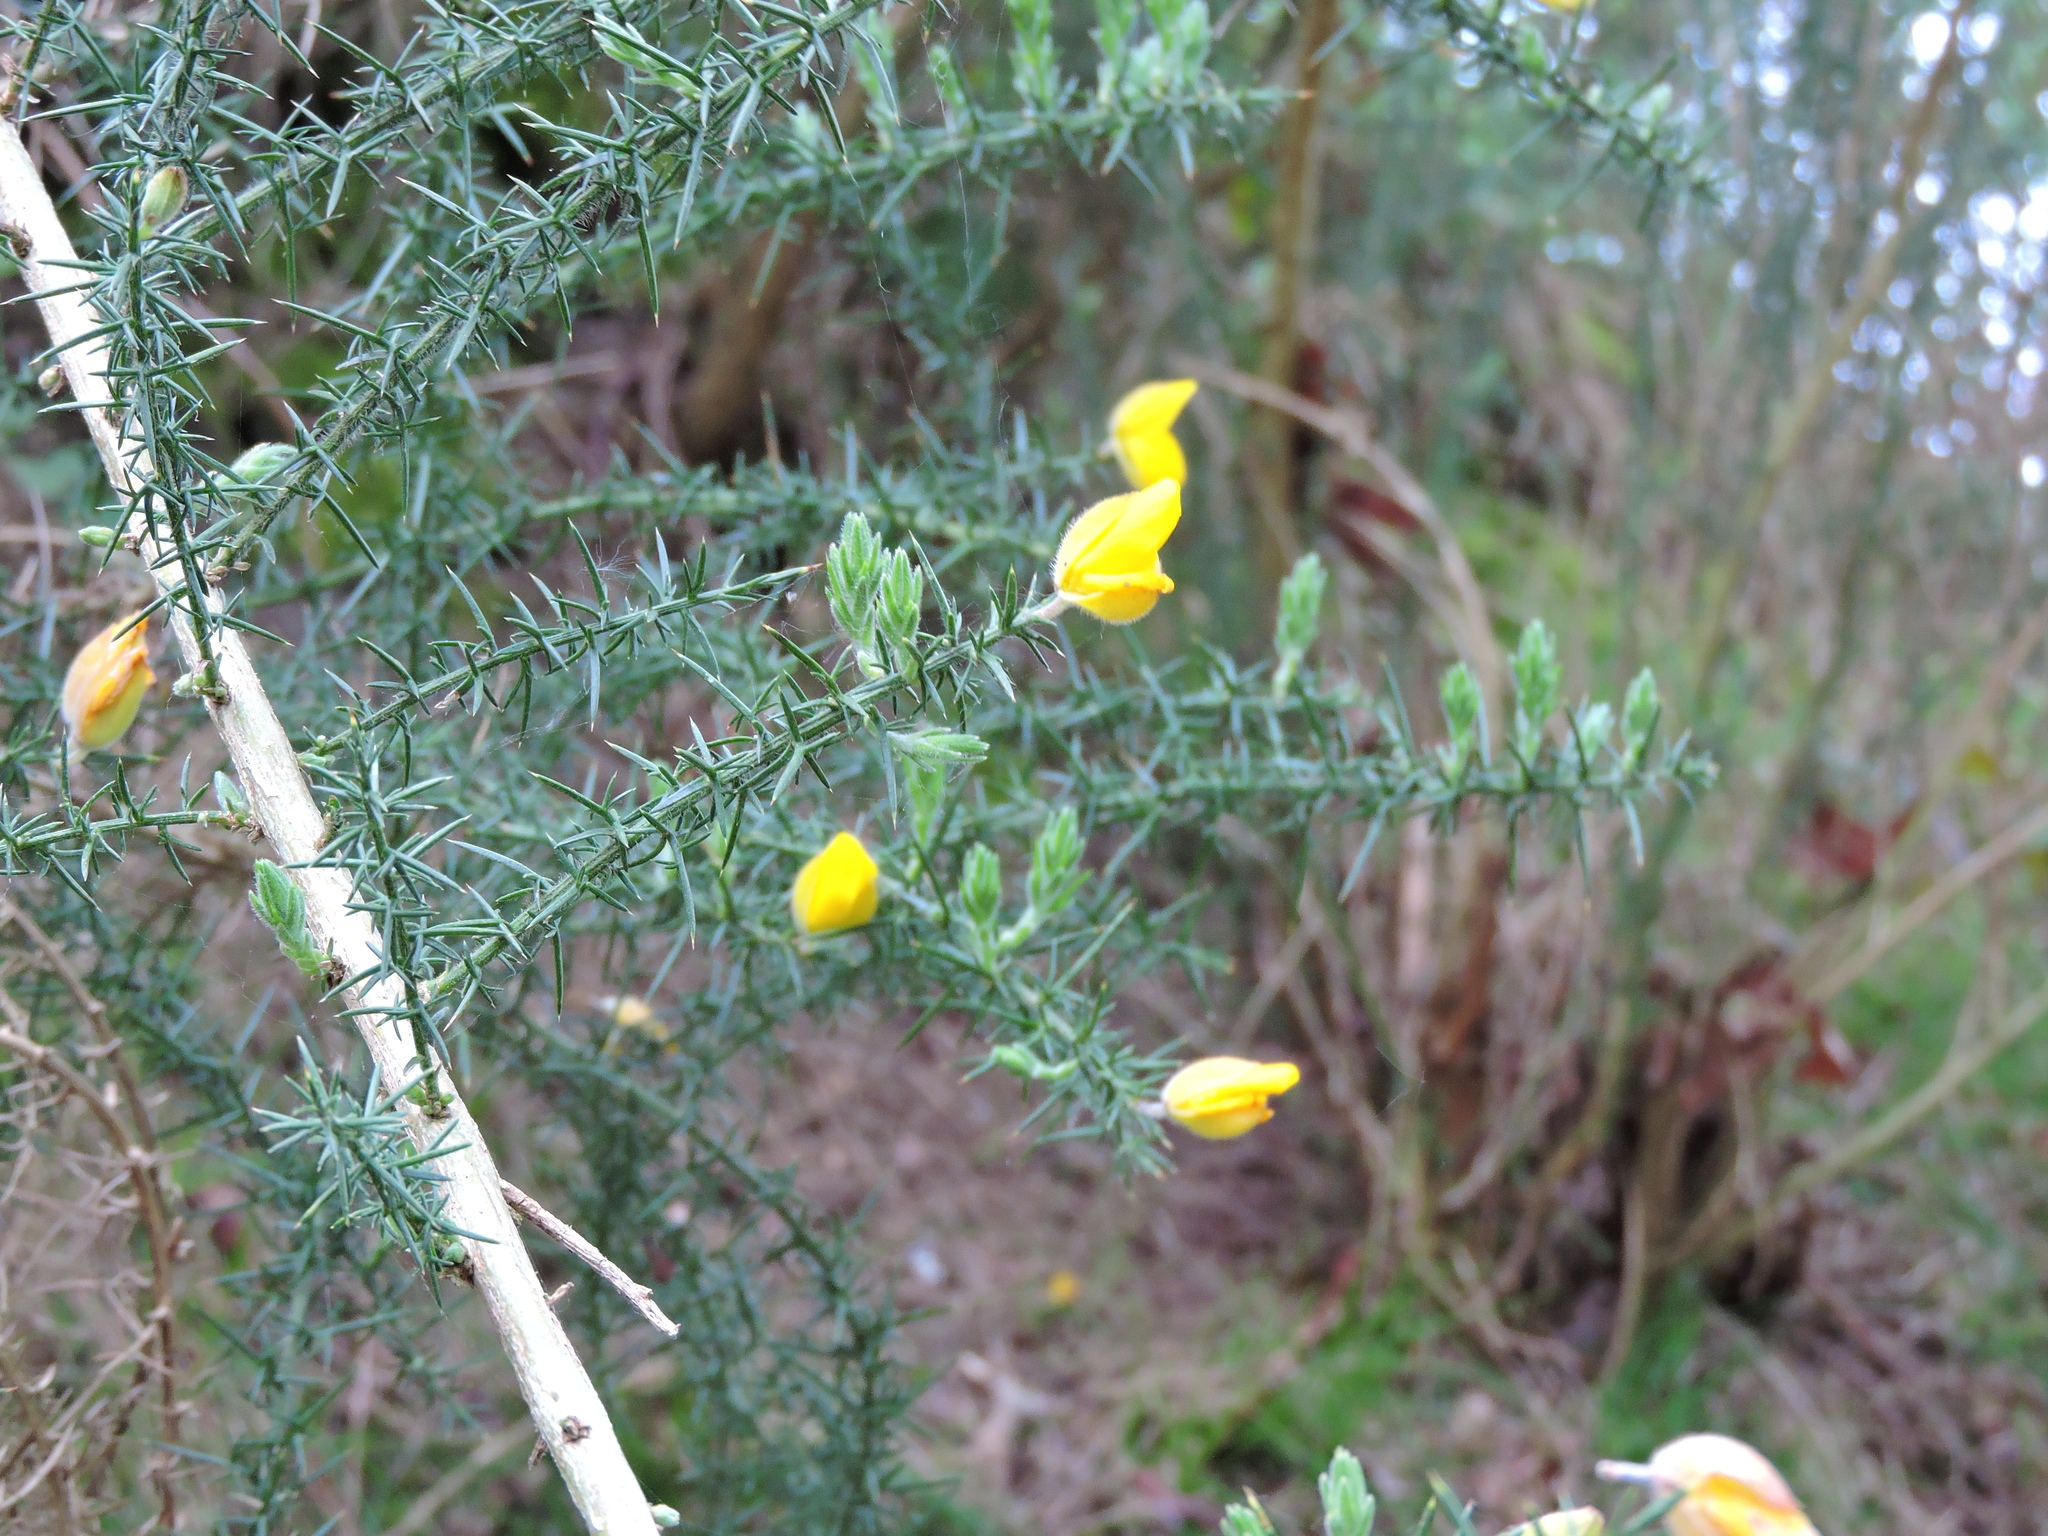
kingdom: Plantae
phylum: Tracheophyta
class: Magnoliopsida
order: Fabales
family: Fabaceae
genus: Ulex
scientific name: Ulex europaeus
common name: Common gorse
